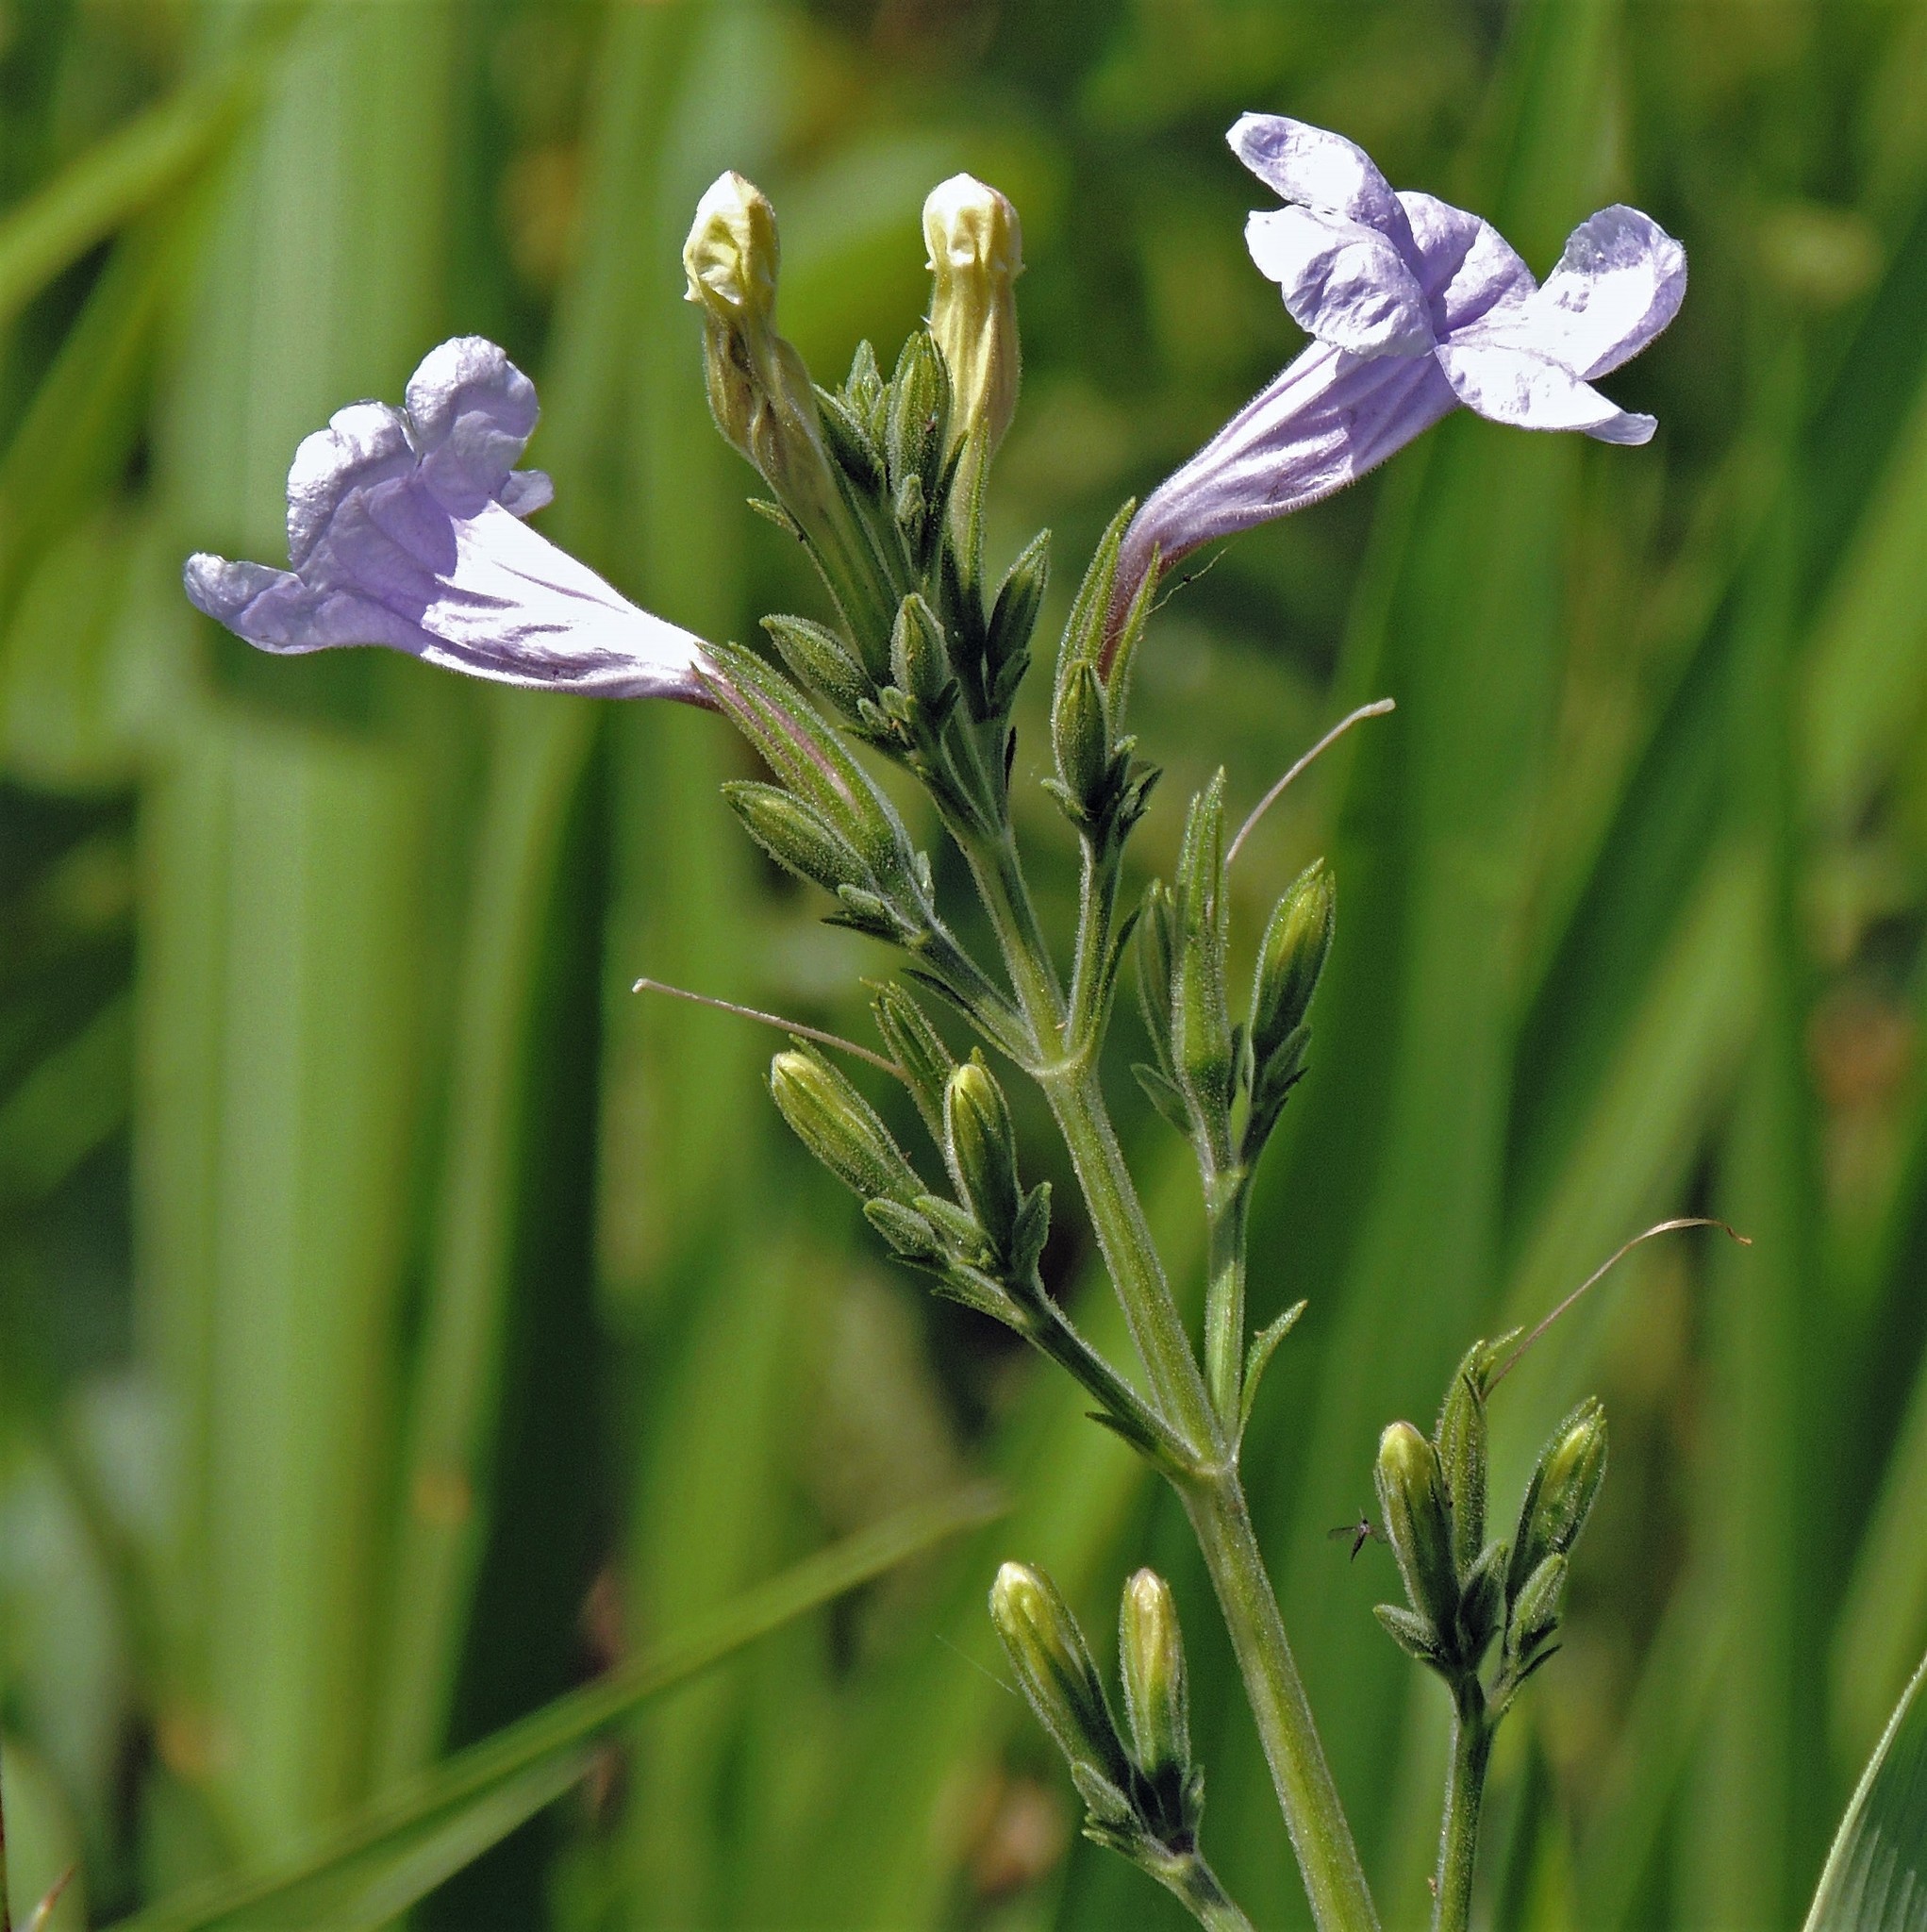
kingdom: Plantae
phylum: Tracheophyta
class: Magnoliopsida
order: Lamiales
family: Acanthaceae
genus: Ruellia
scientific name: Ruellia ciliatiflora
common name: Hairyflower wild petunia
